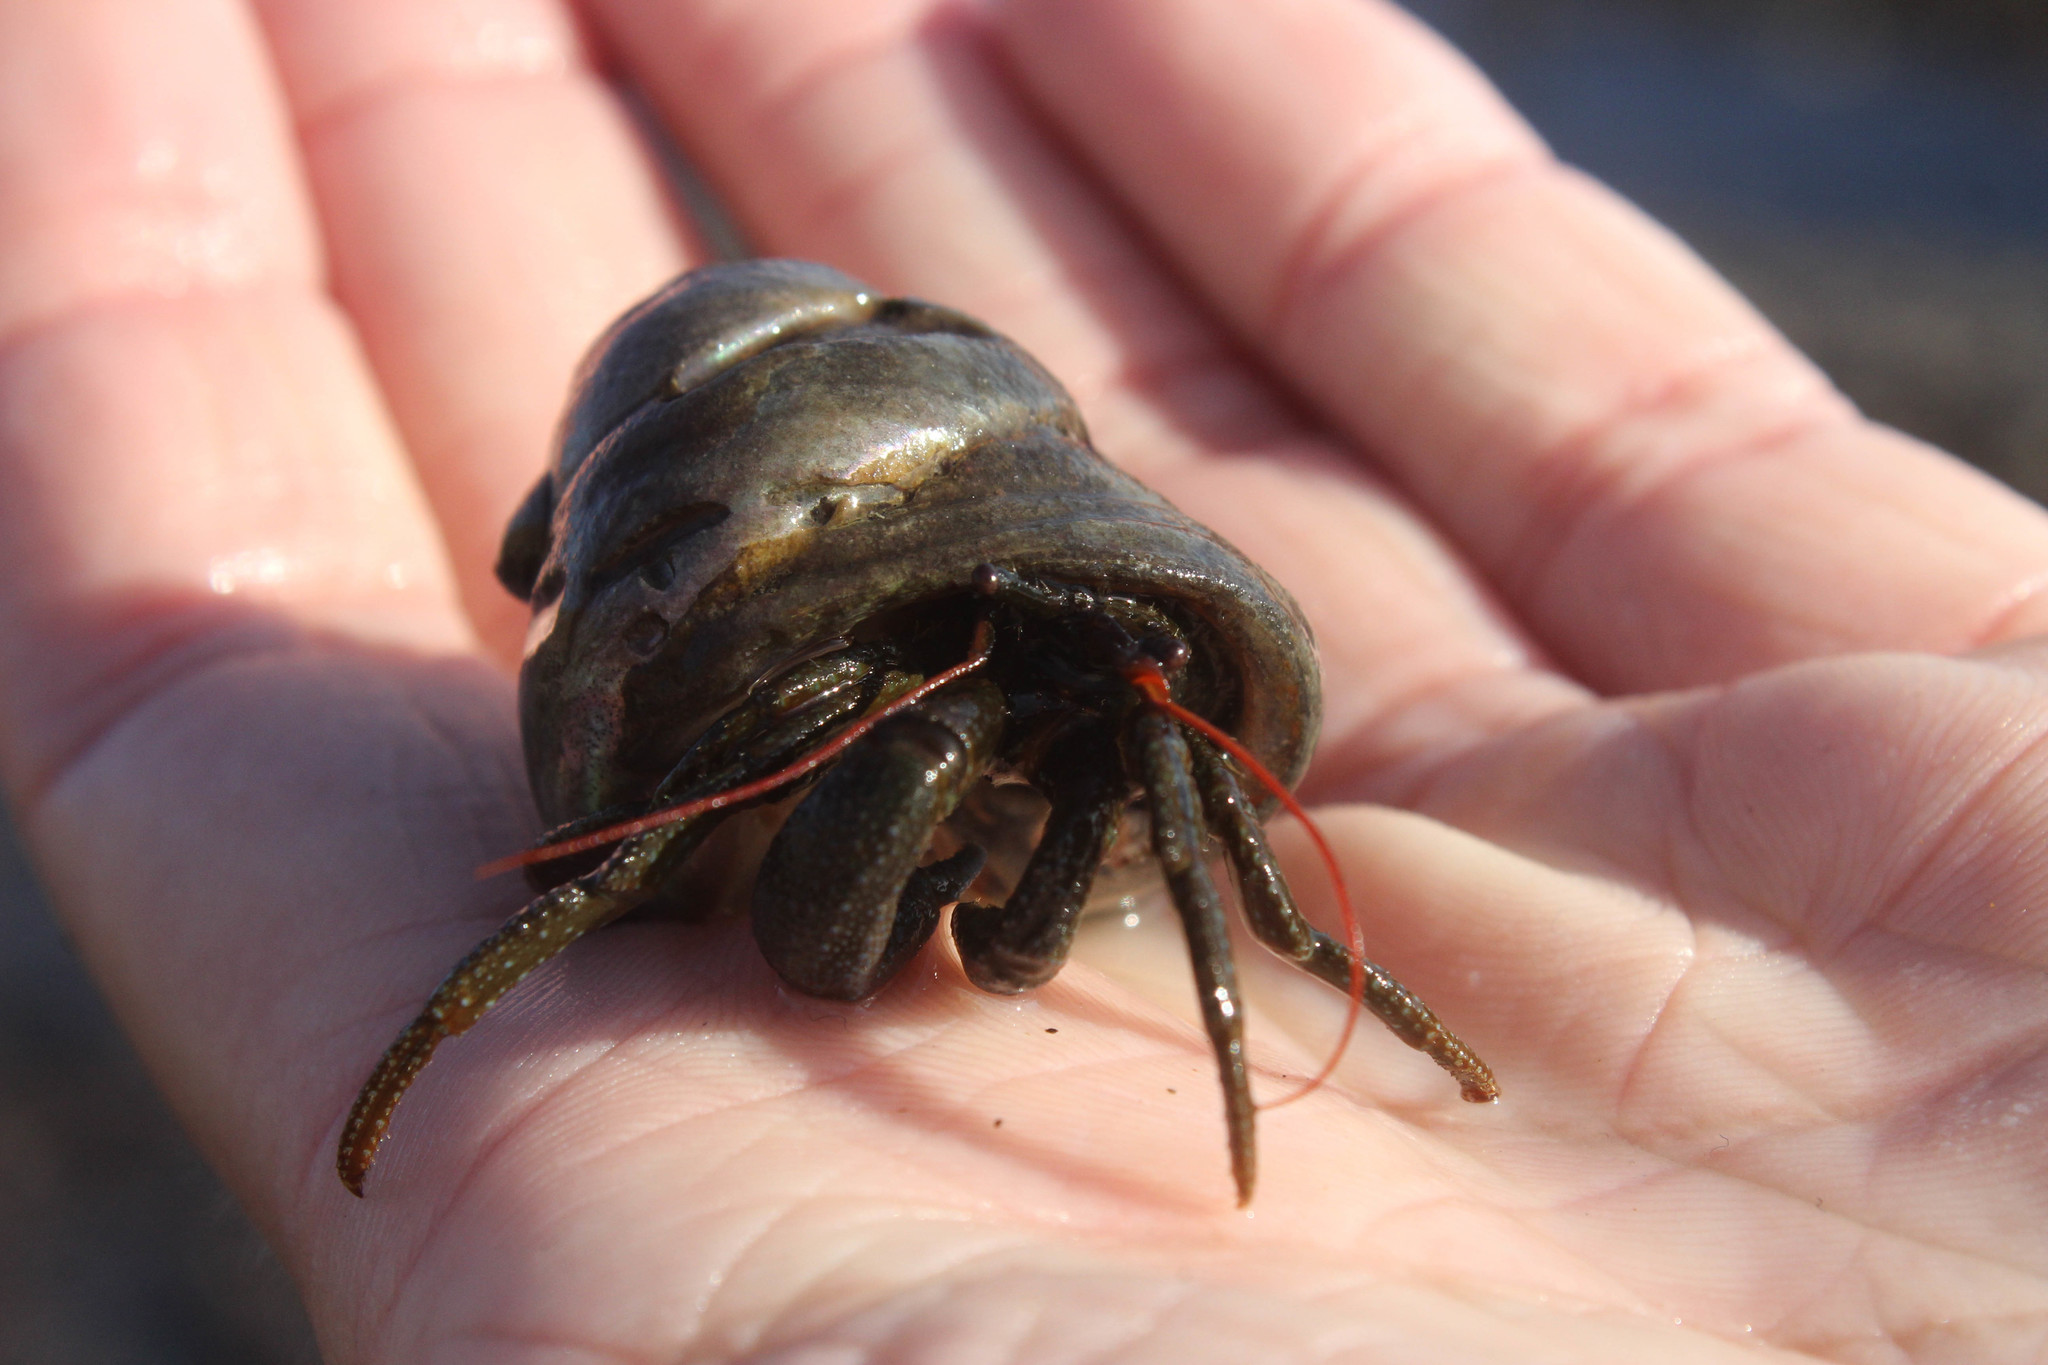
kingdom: Animalia
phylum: Arthropoda
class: Malacostraca
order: Decapoda
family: Paguridae
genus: Pagurus
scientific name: Pagurus granosimanus
